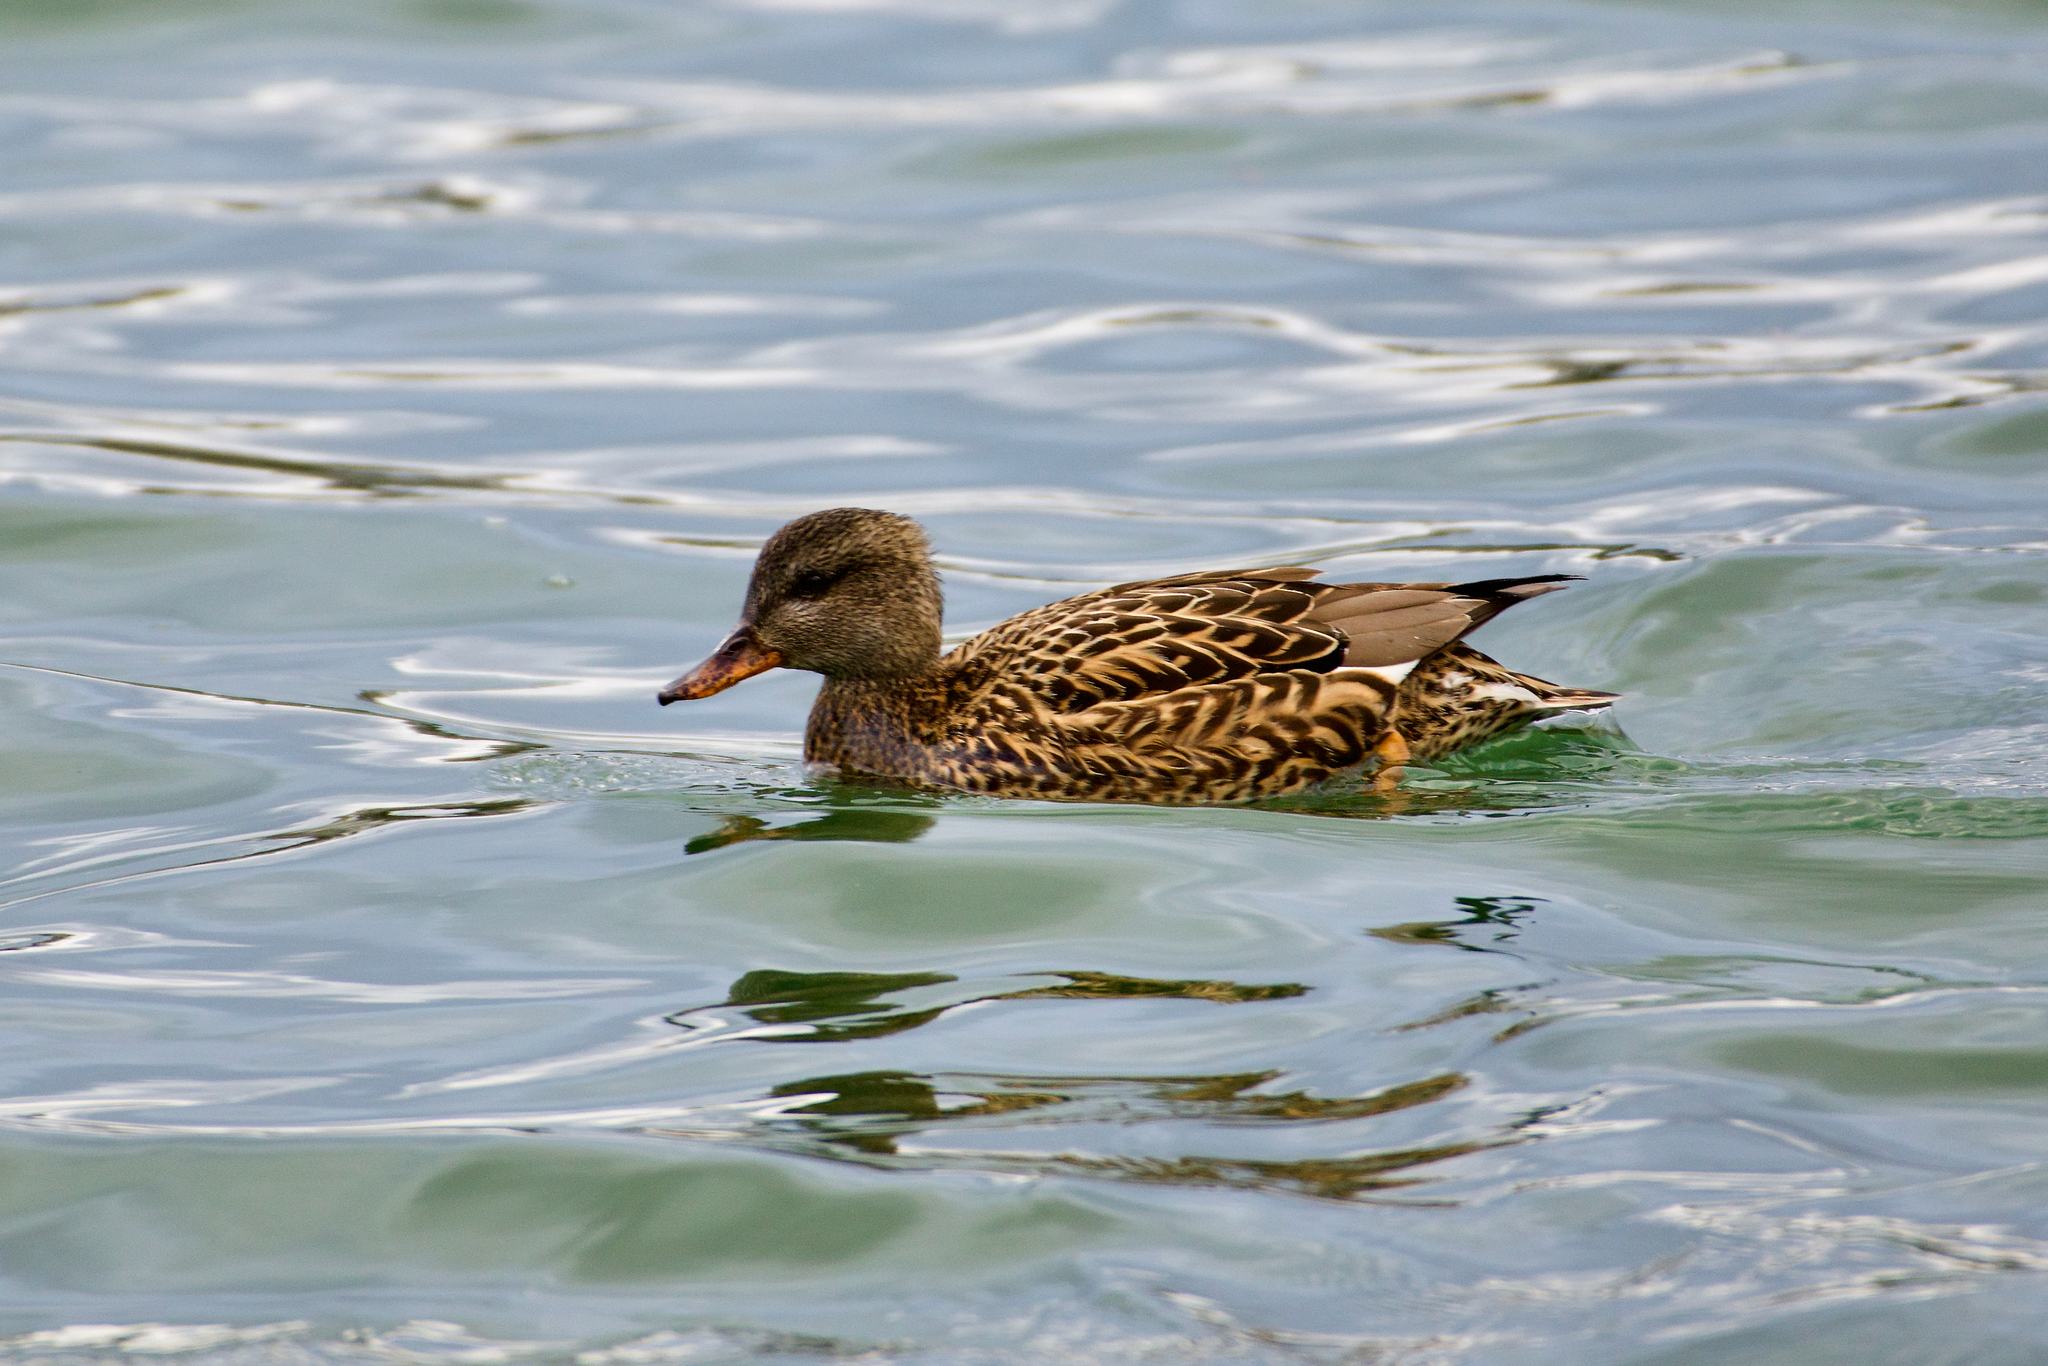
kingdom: Animalia
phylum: Chordata
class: Aves
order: Anseriformes
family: Anatidae
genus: Mareca
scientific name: Mareca strepera
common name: Gadwall
